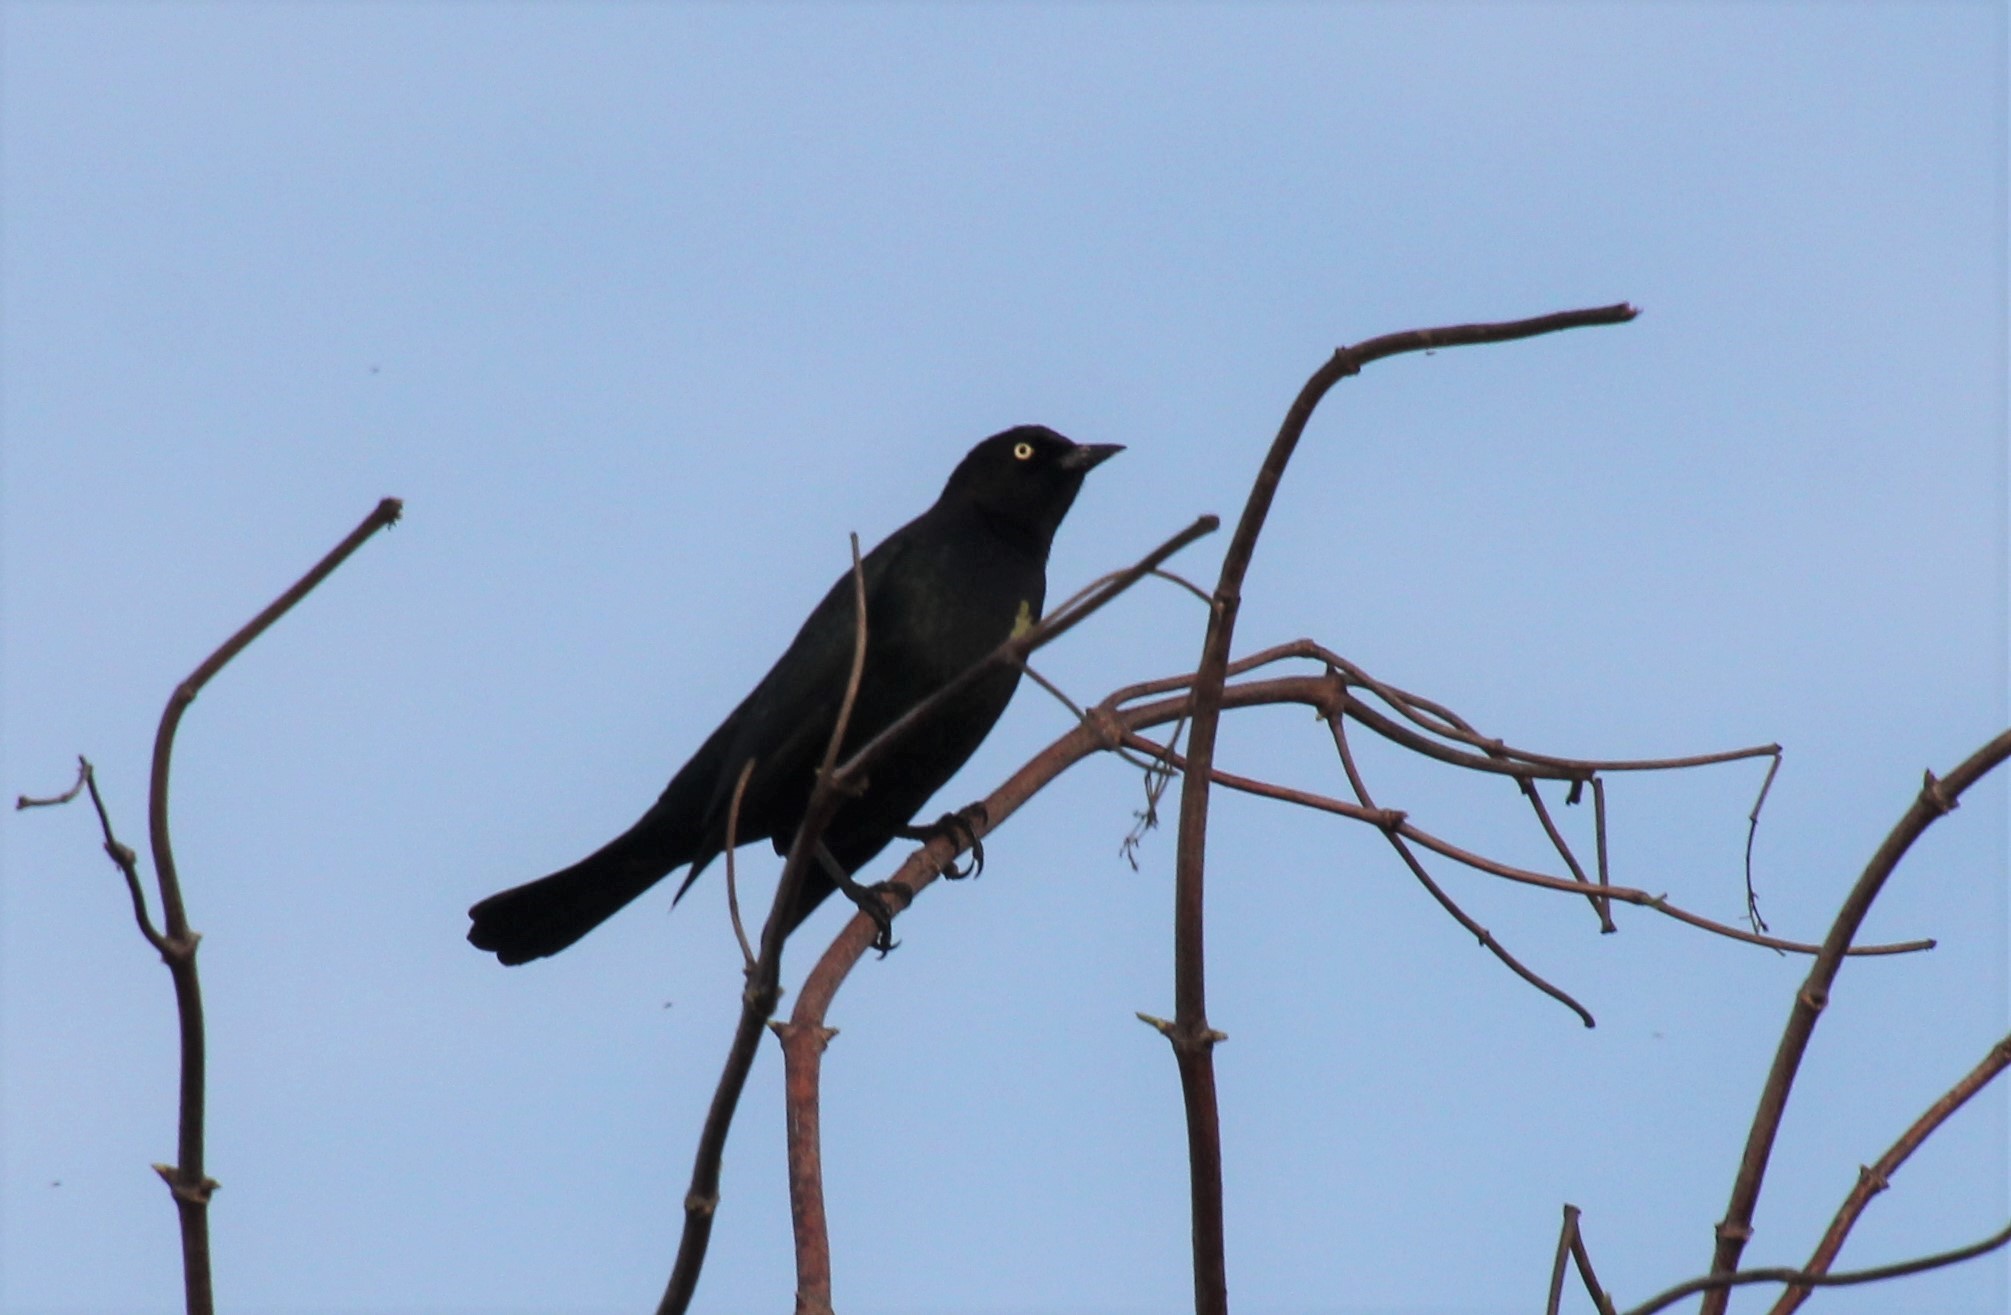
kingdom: Animalia
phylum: Chordata
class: Aves
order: Passeriformes
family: Icteridae
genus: Euphagus
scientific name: Euphagus cyanocephalus
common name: Brewer's blackbird
